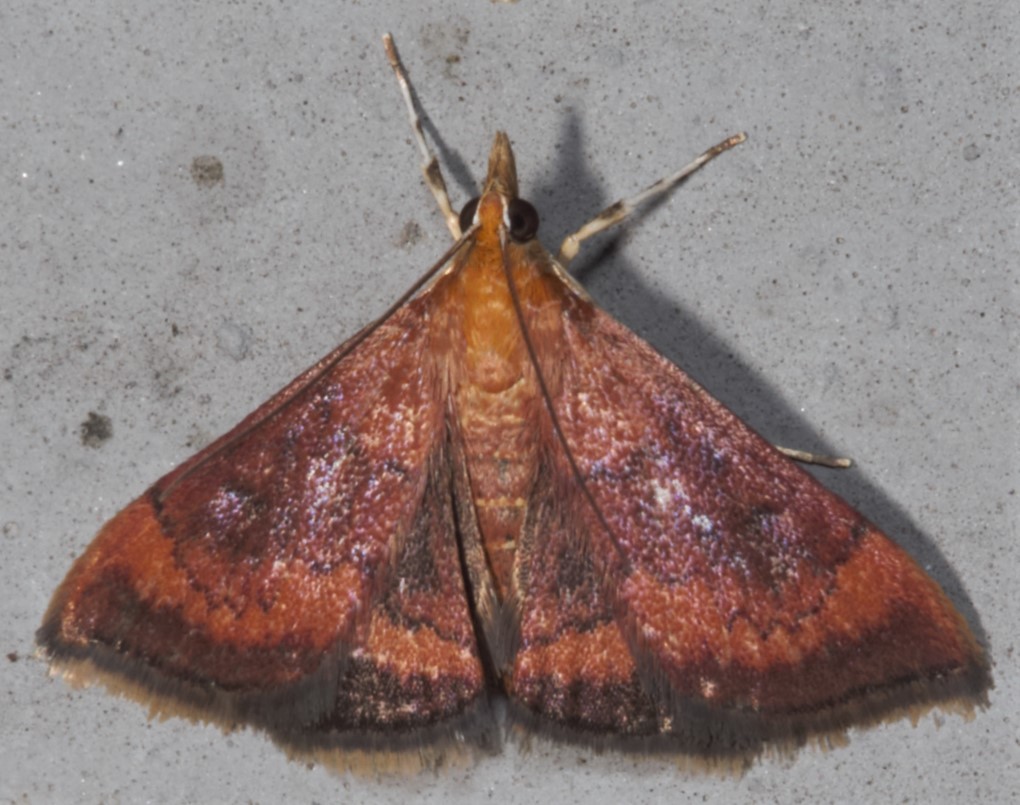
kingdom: Animalia
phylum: Arthropoda
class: Insecta
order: Lepidoptera
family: Crambidae
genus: Pyrausta
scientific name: Pyrausta rubricalis
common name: Variable reddish pyrausta
